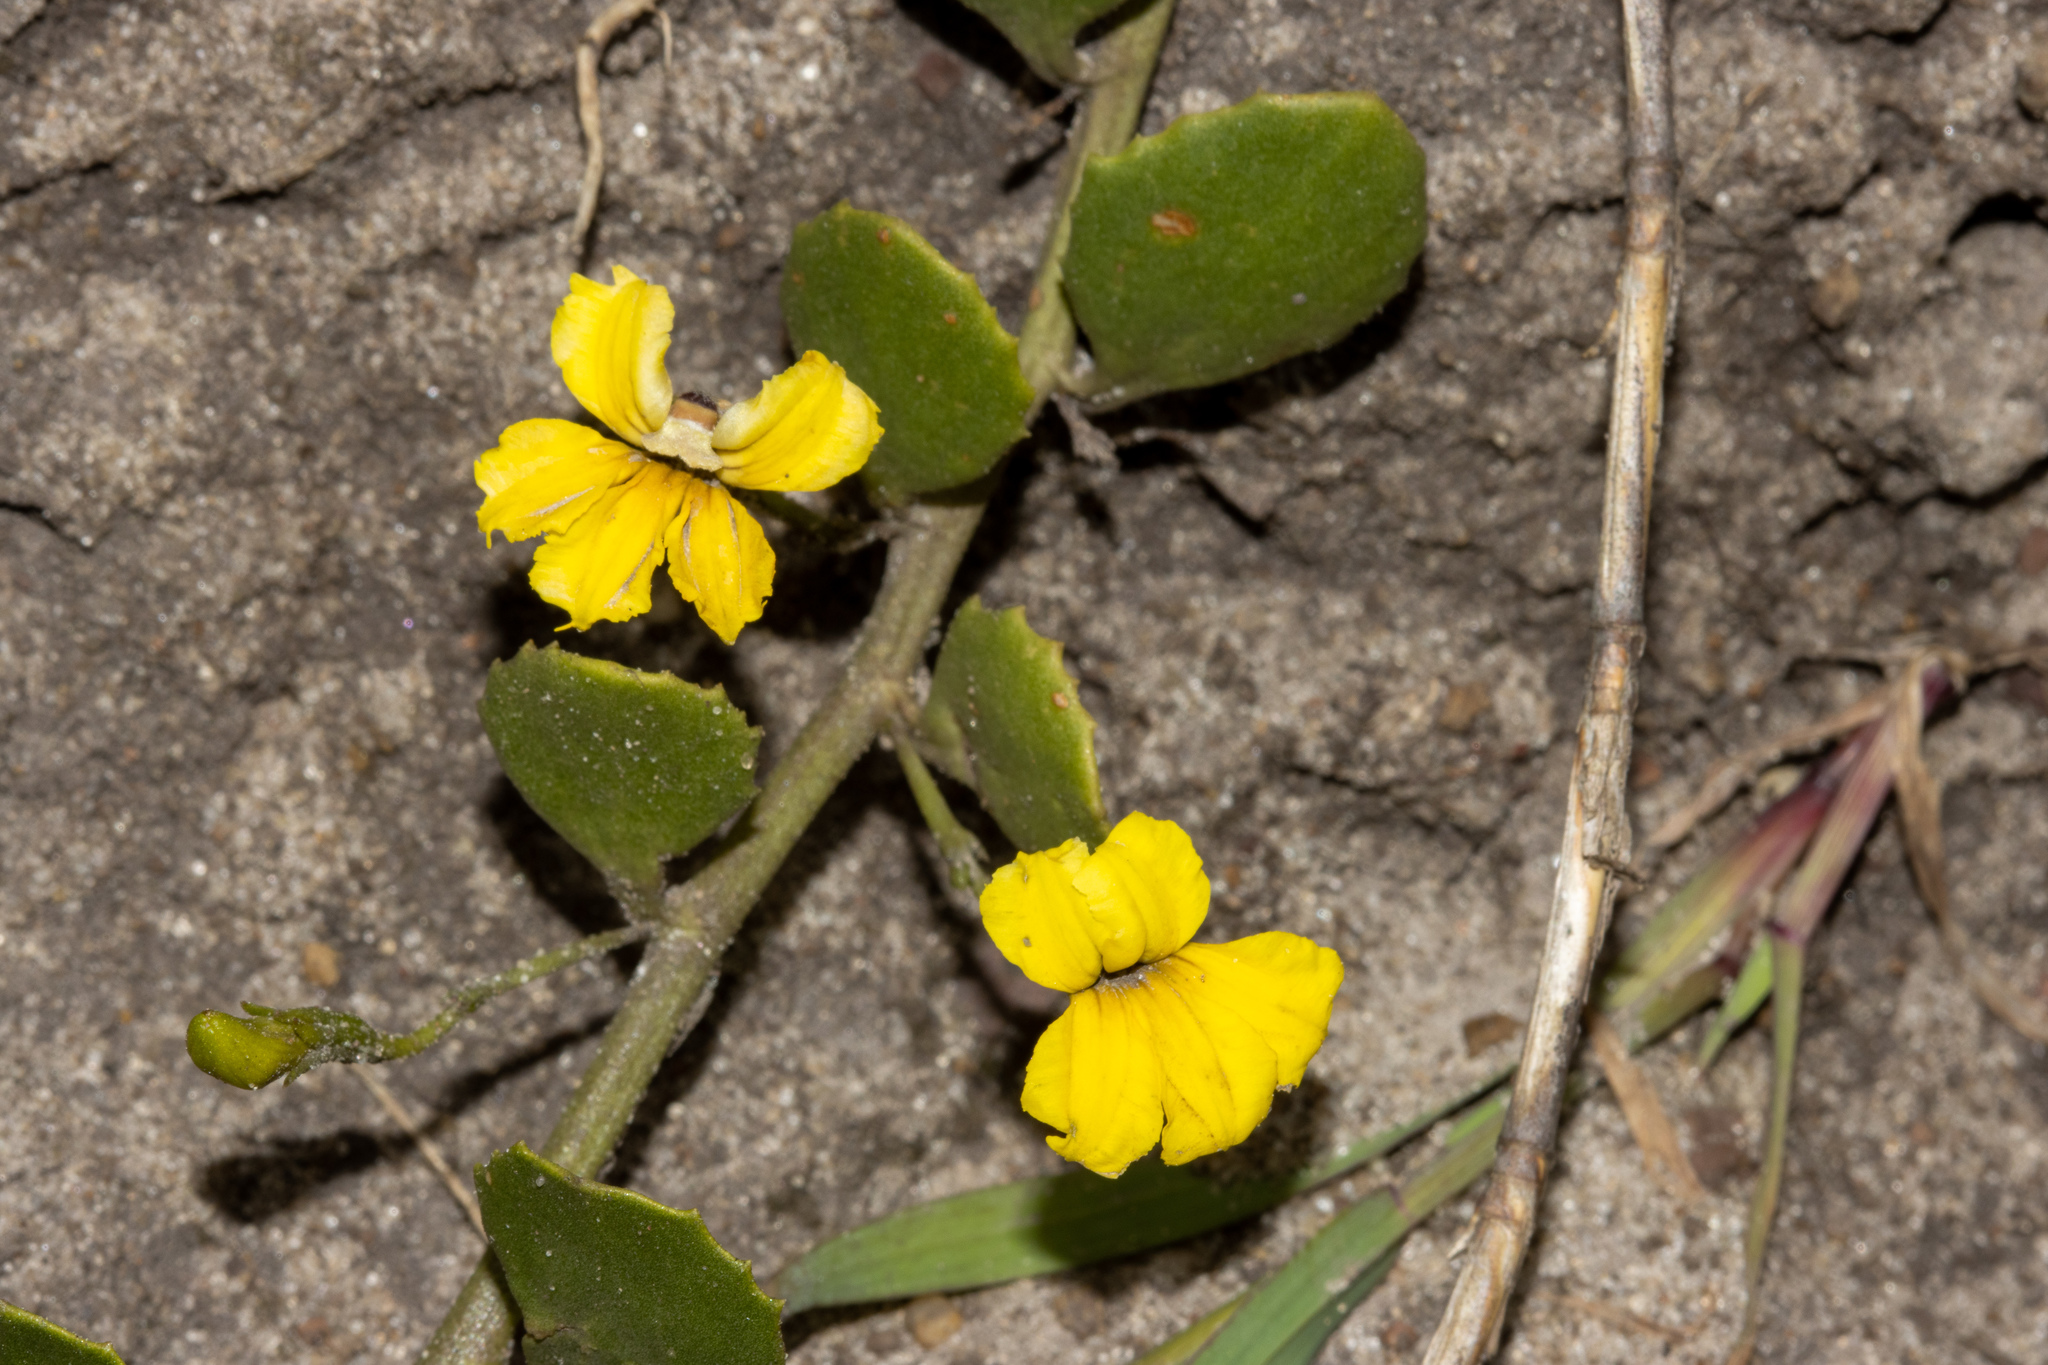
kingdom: Plantae
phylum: Tracheophyta
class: Magnoliopsida
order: Asterales
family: Goodeniaceae
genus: Goodenia
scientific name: Goodenia varia
